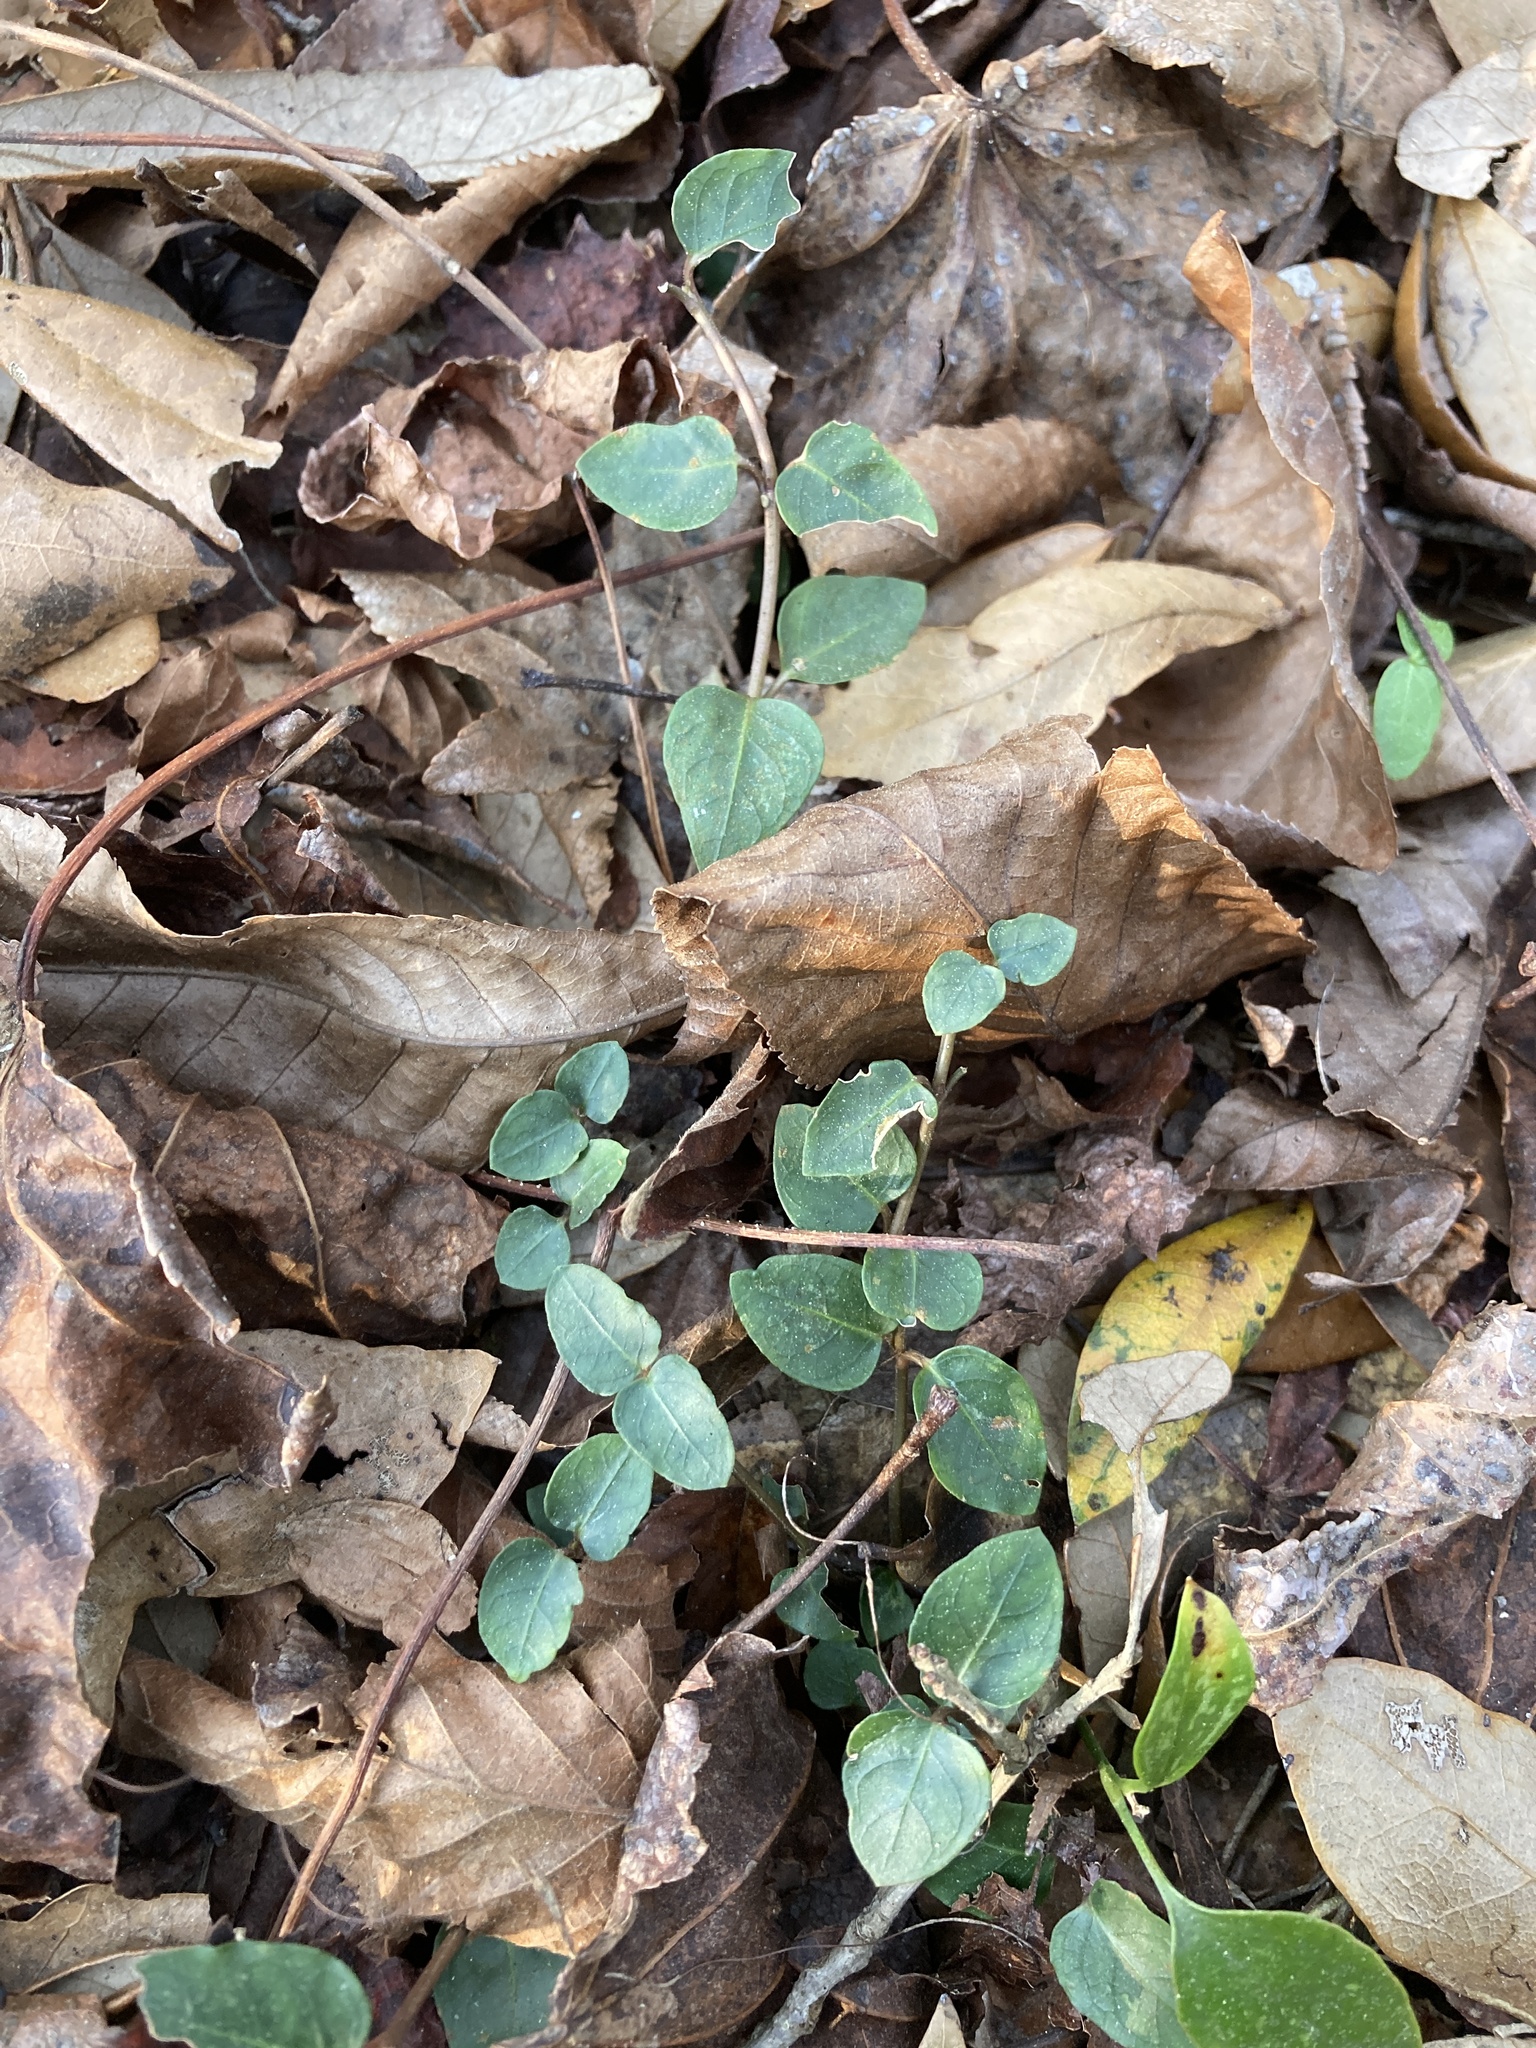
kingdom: Plantae
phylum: Tracheophyta
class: Magnoliopsida
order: Gentianales
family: Rubiaceae
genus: Mitchella
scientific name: Mitchella repens
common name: Partridge-berry
